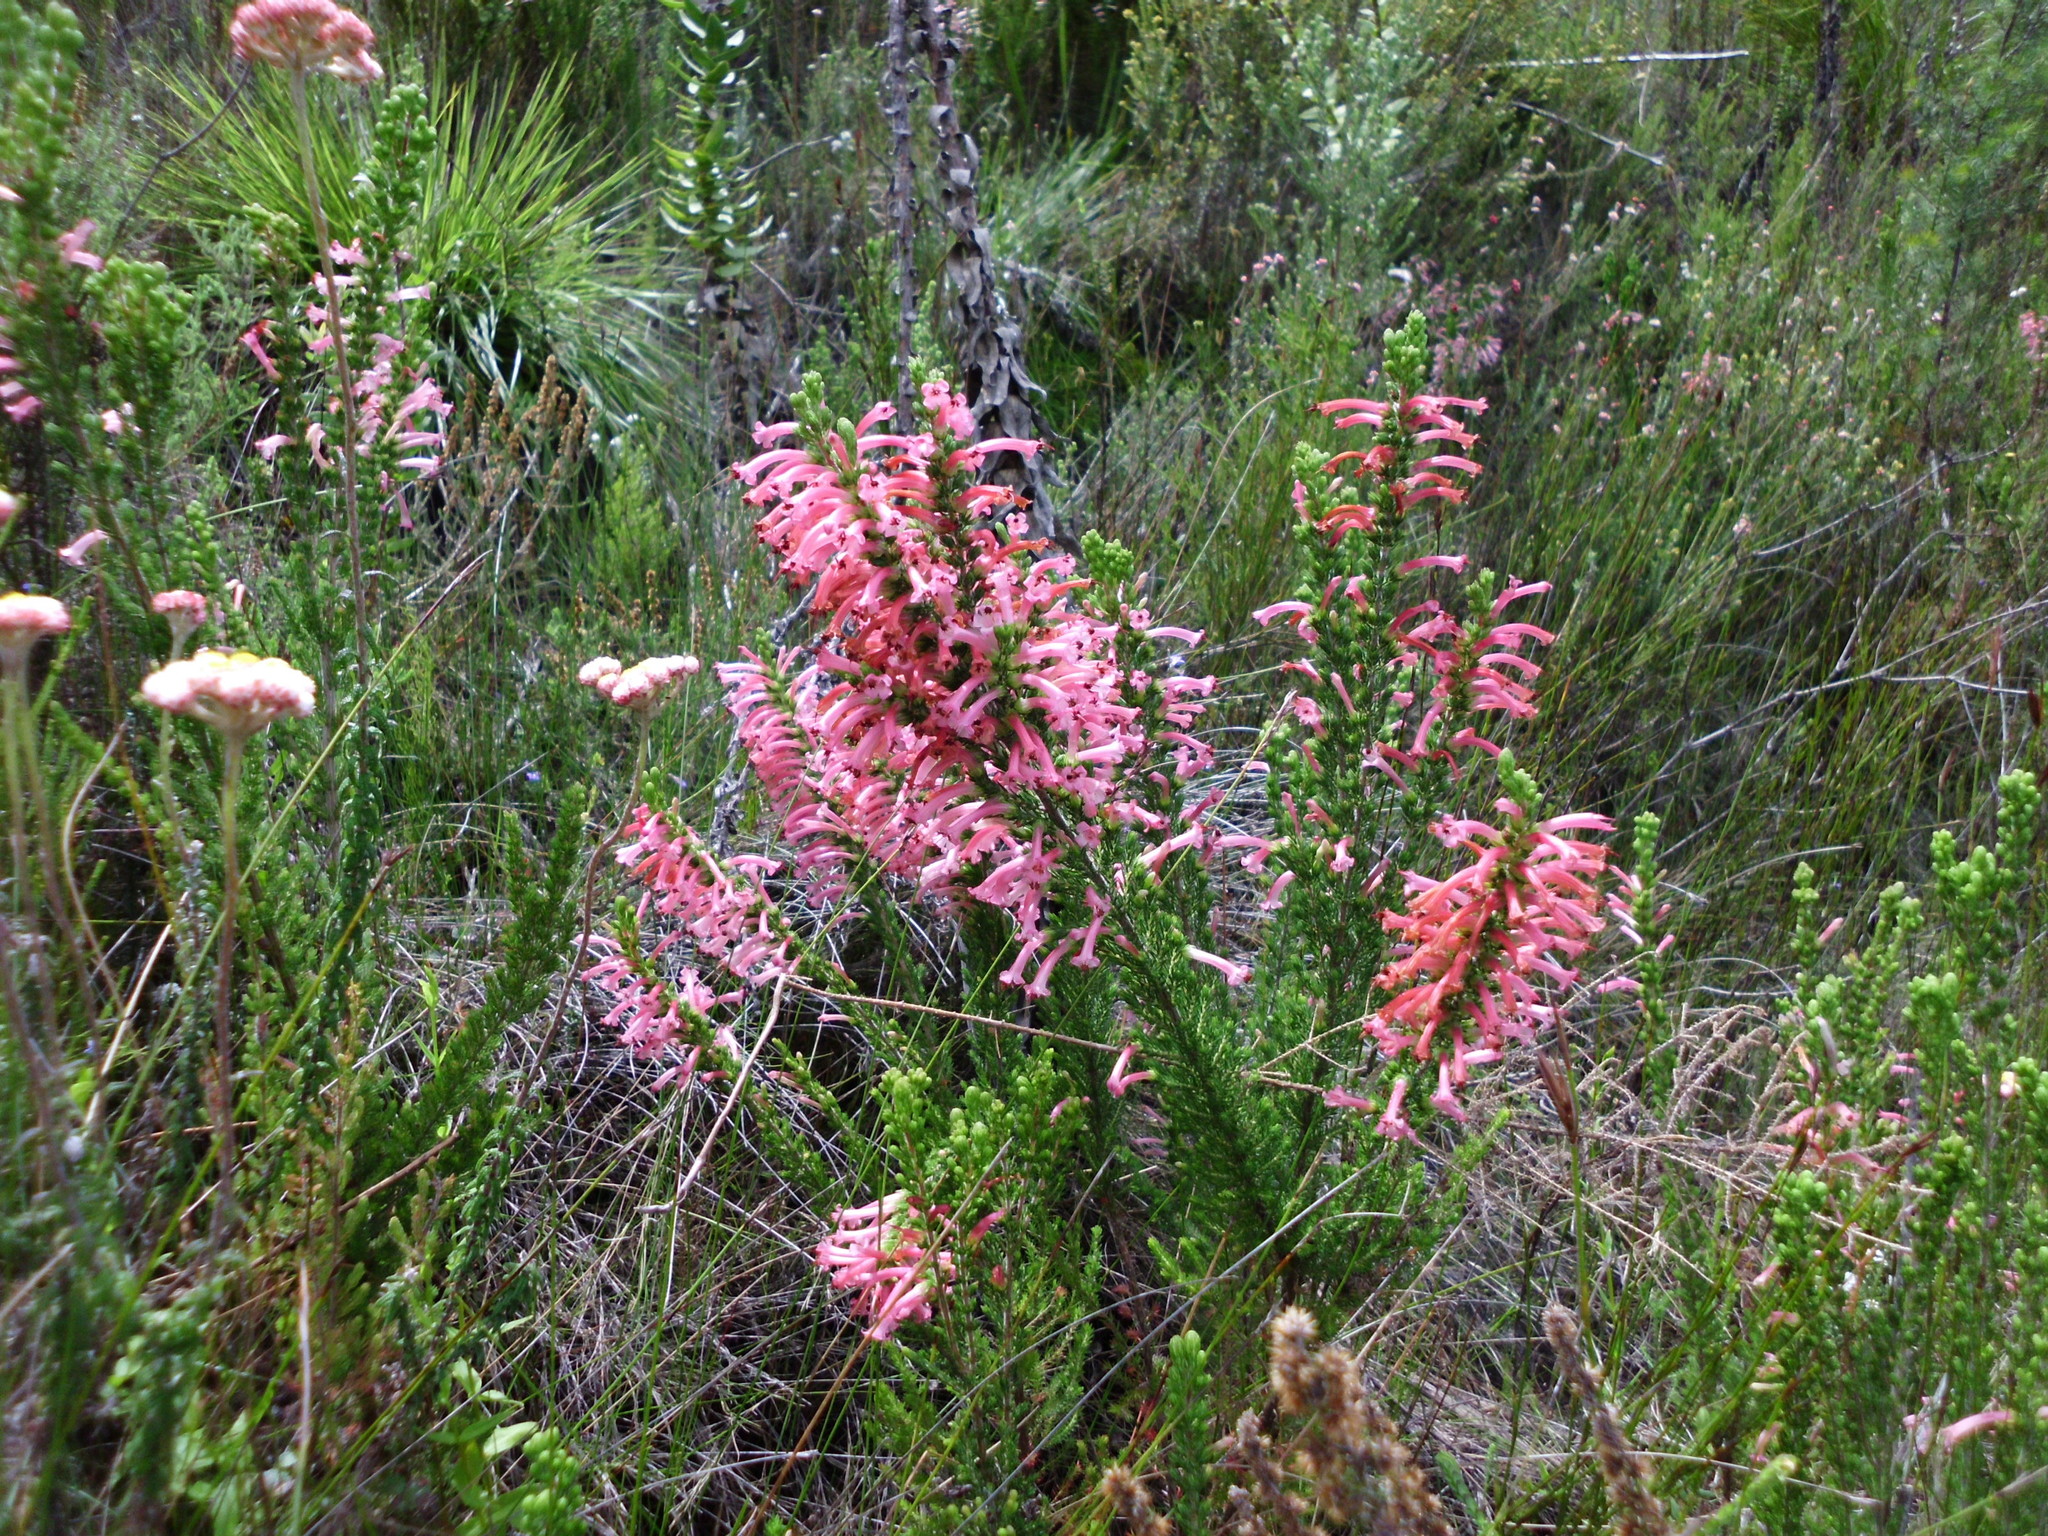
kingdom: Plantae
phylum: Tracheophyta
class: Magnoliopsida
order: Ericales
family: Ericaceae
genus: Erica
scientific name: Erica densifolia
